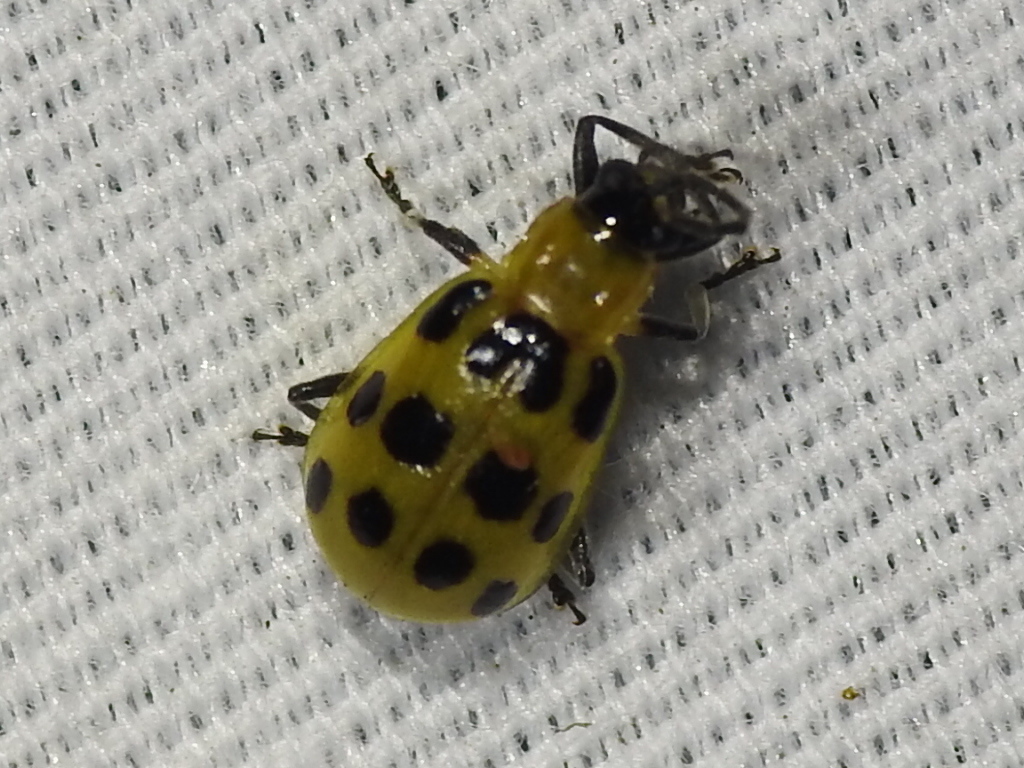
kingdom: Animalia
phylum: Arthropoda
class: Insecta
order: Coleoptera
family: Chrysomelidae
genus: Diabrotica
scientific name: Diabrotica undecimpunctata
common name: Spotted cucumber beetle
